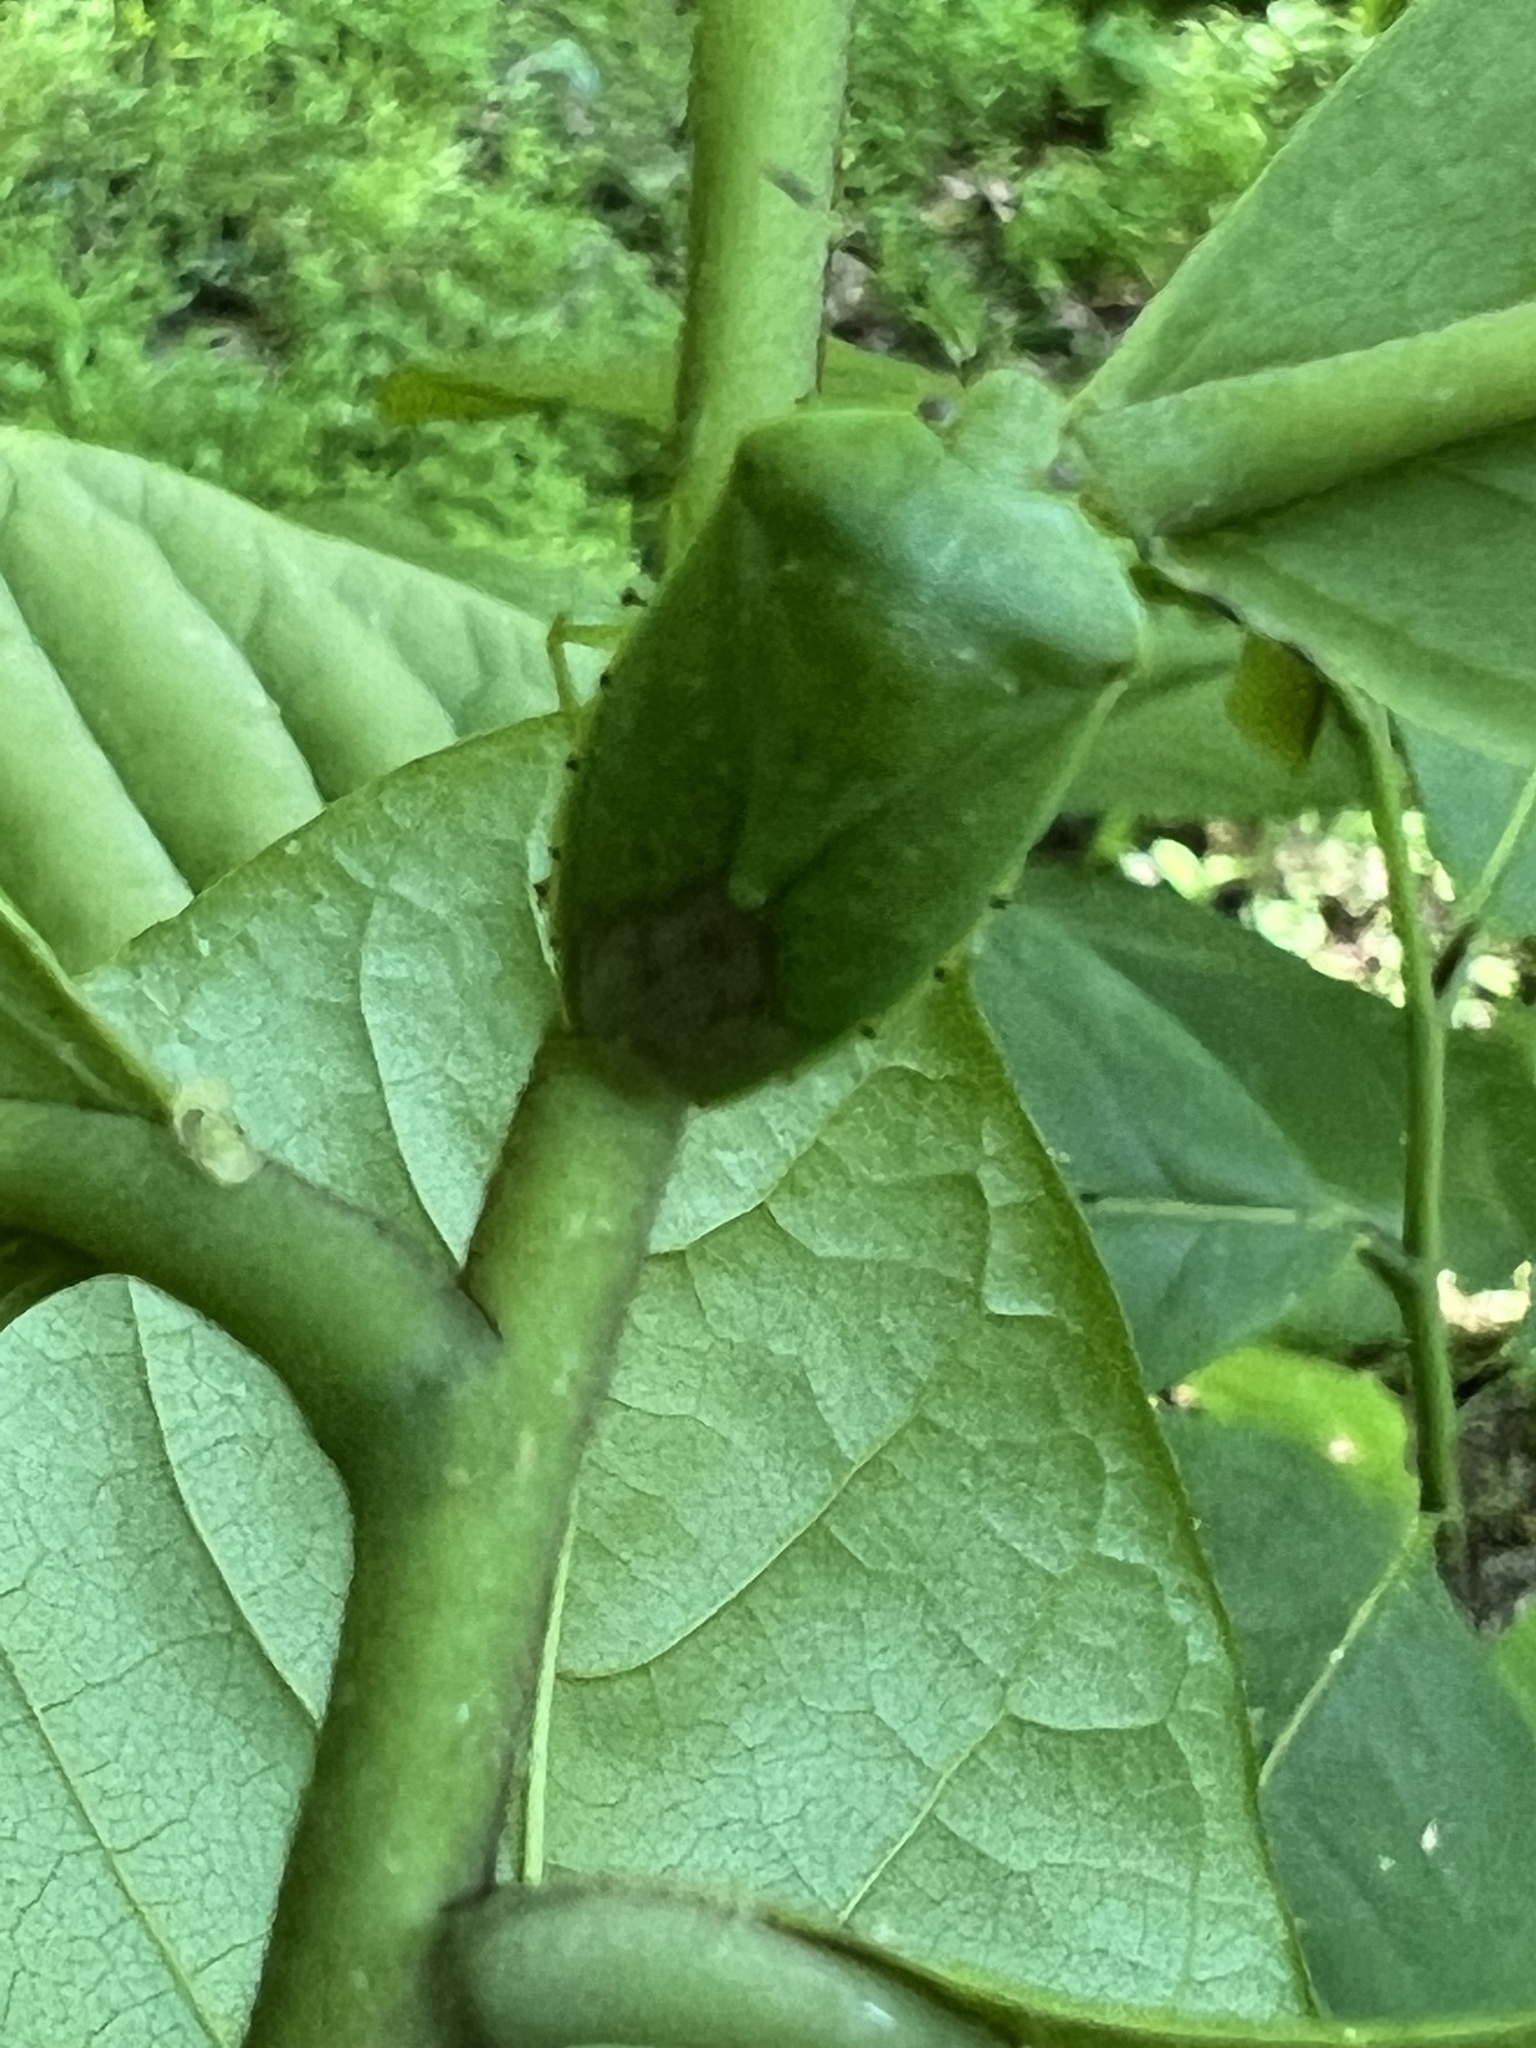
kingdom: Animalia
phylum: Arthropoda
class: Insecta
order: Hemiptera
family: Pentatomidae
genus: Chinavia
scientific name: Chinavia hilaris
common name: Green stink bug
